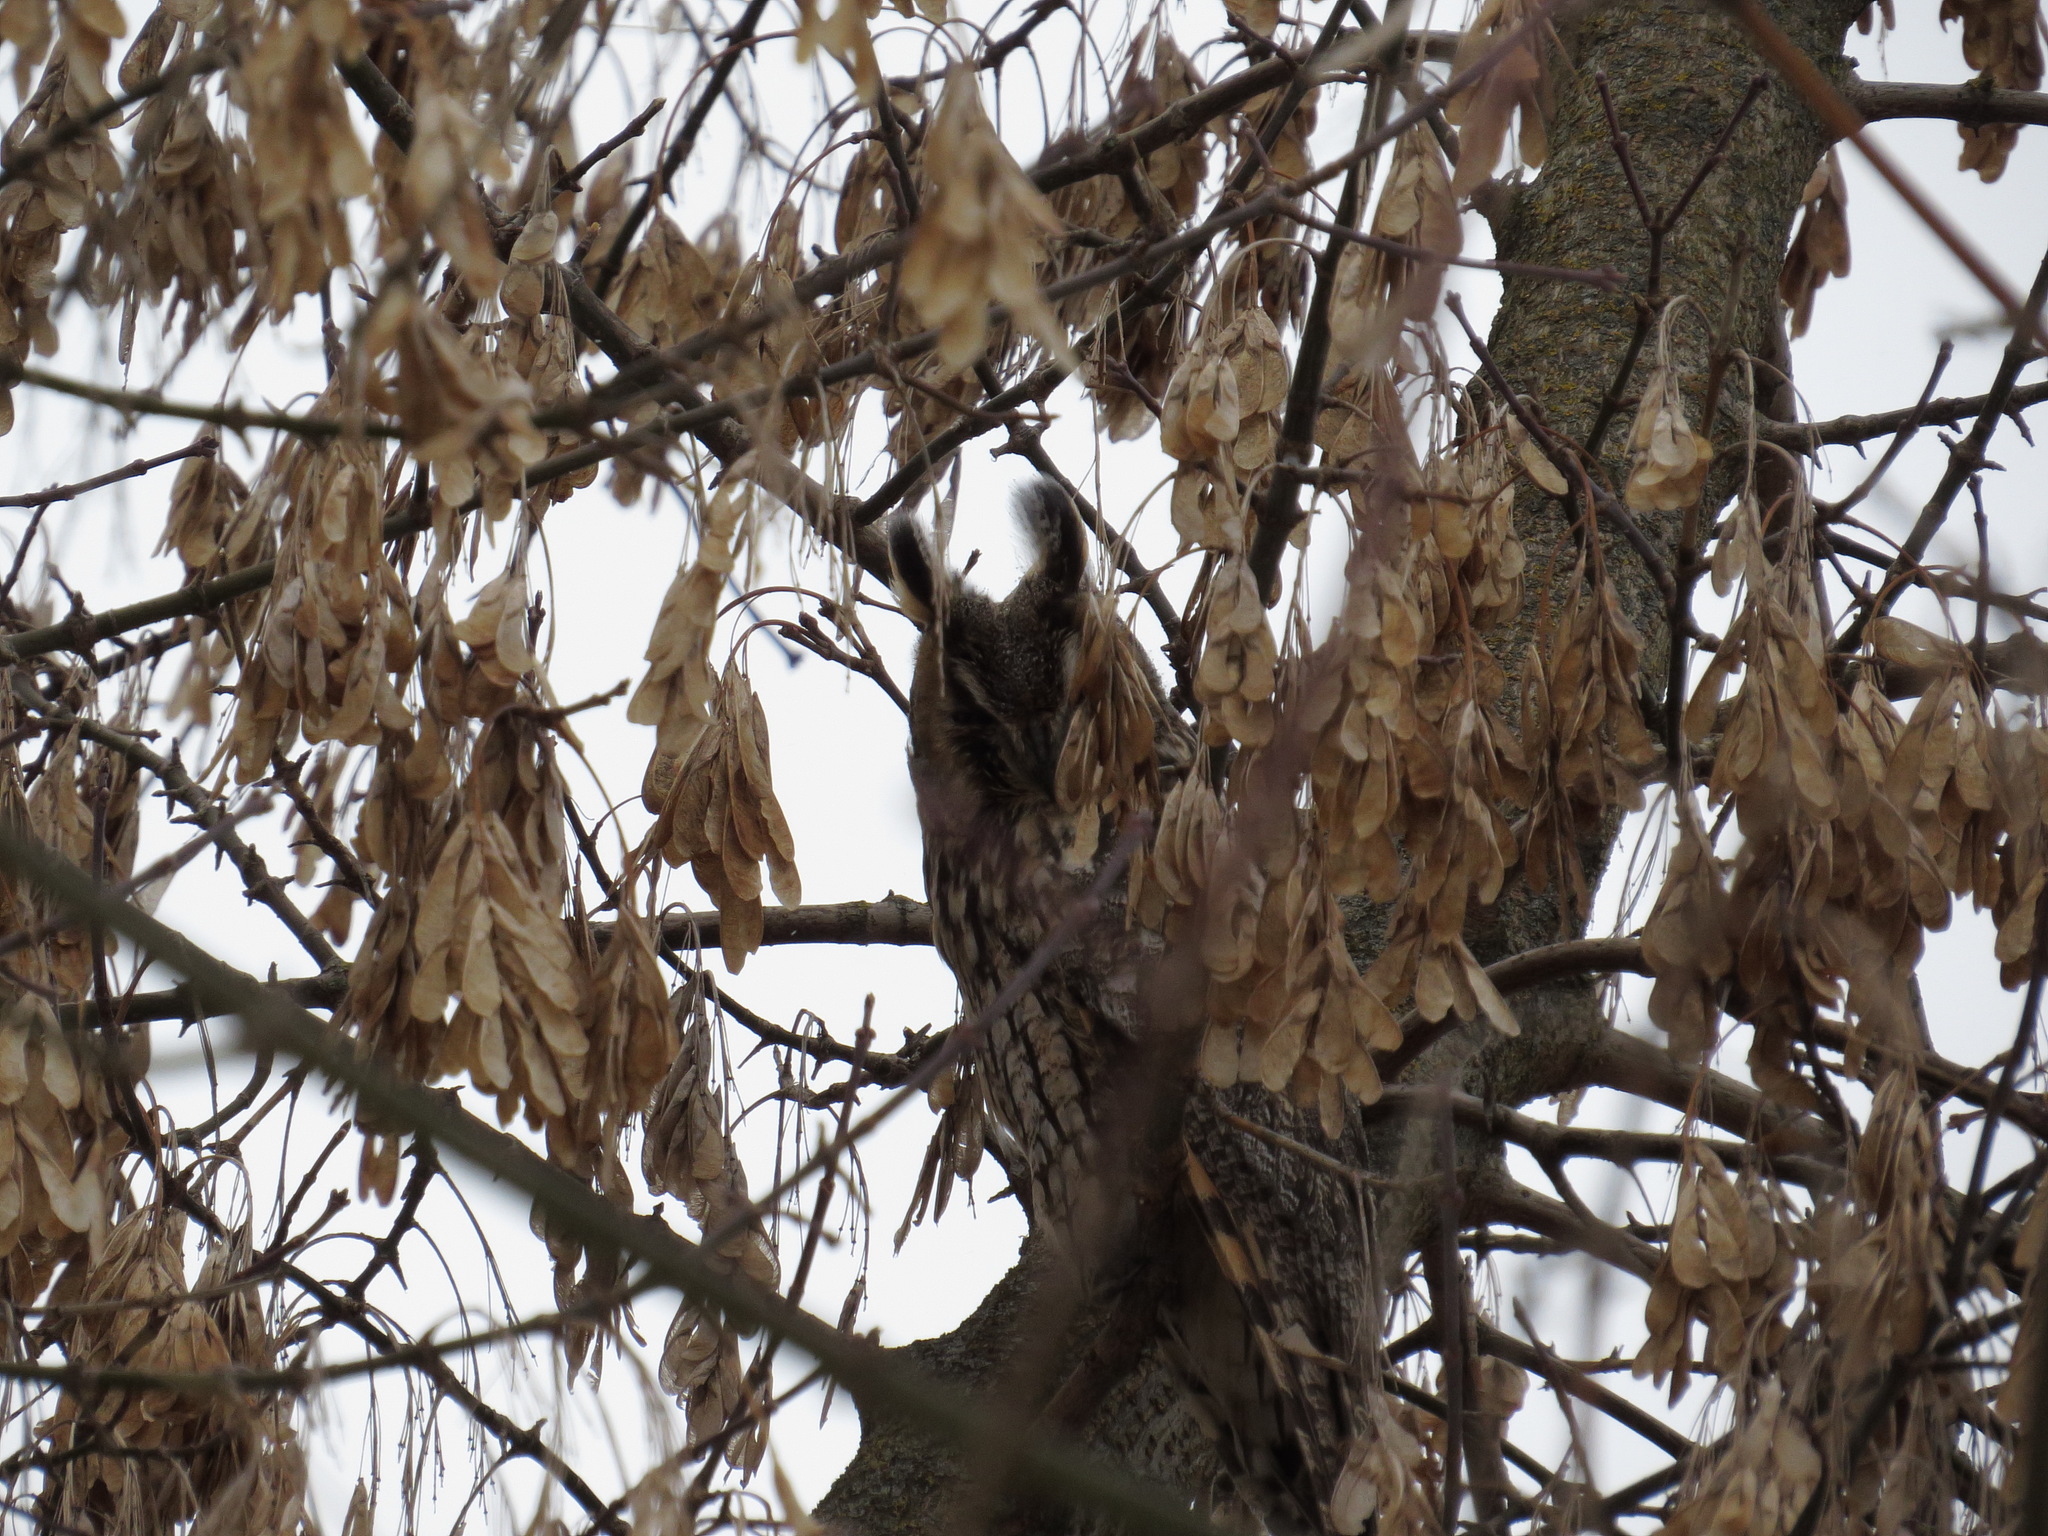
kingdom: Animalia
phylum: Chordata
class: Aves
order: Strigiformes
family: Strigidae
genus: Asio
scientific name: Asio otus
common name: Long-eared owl
